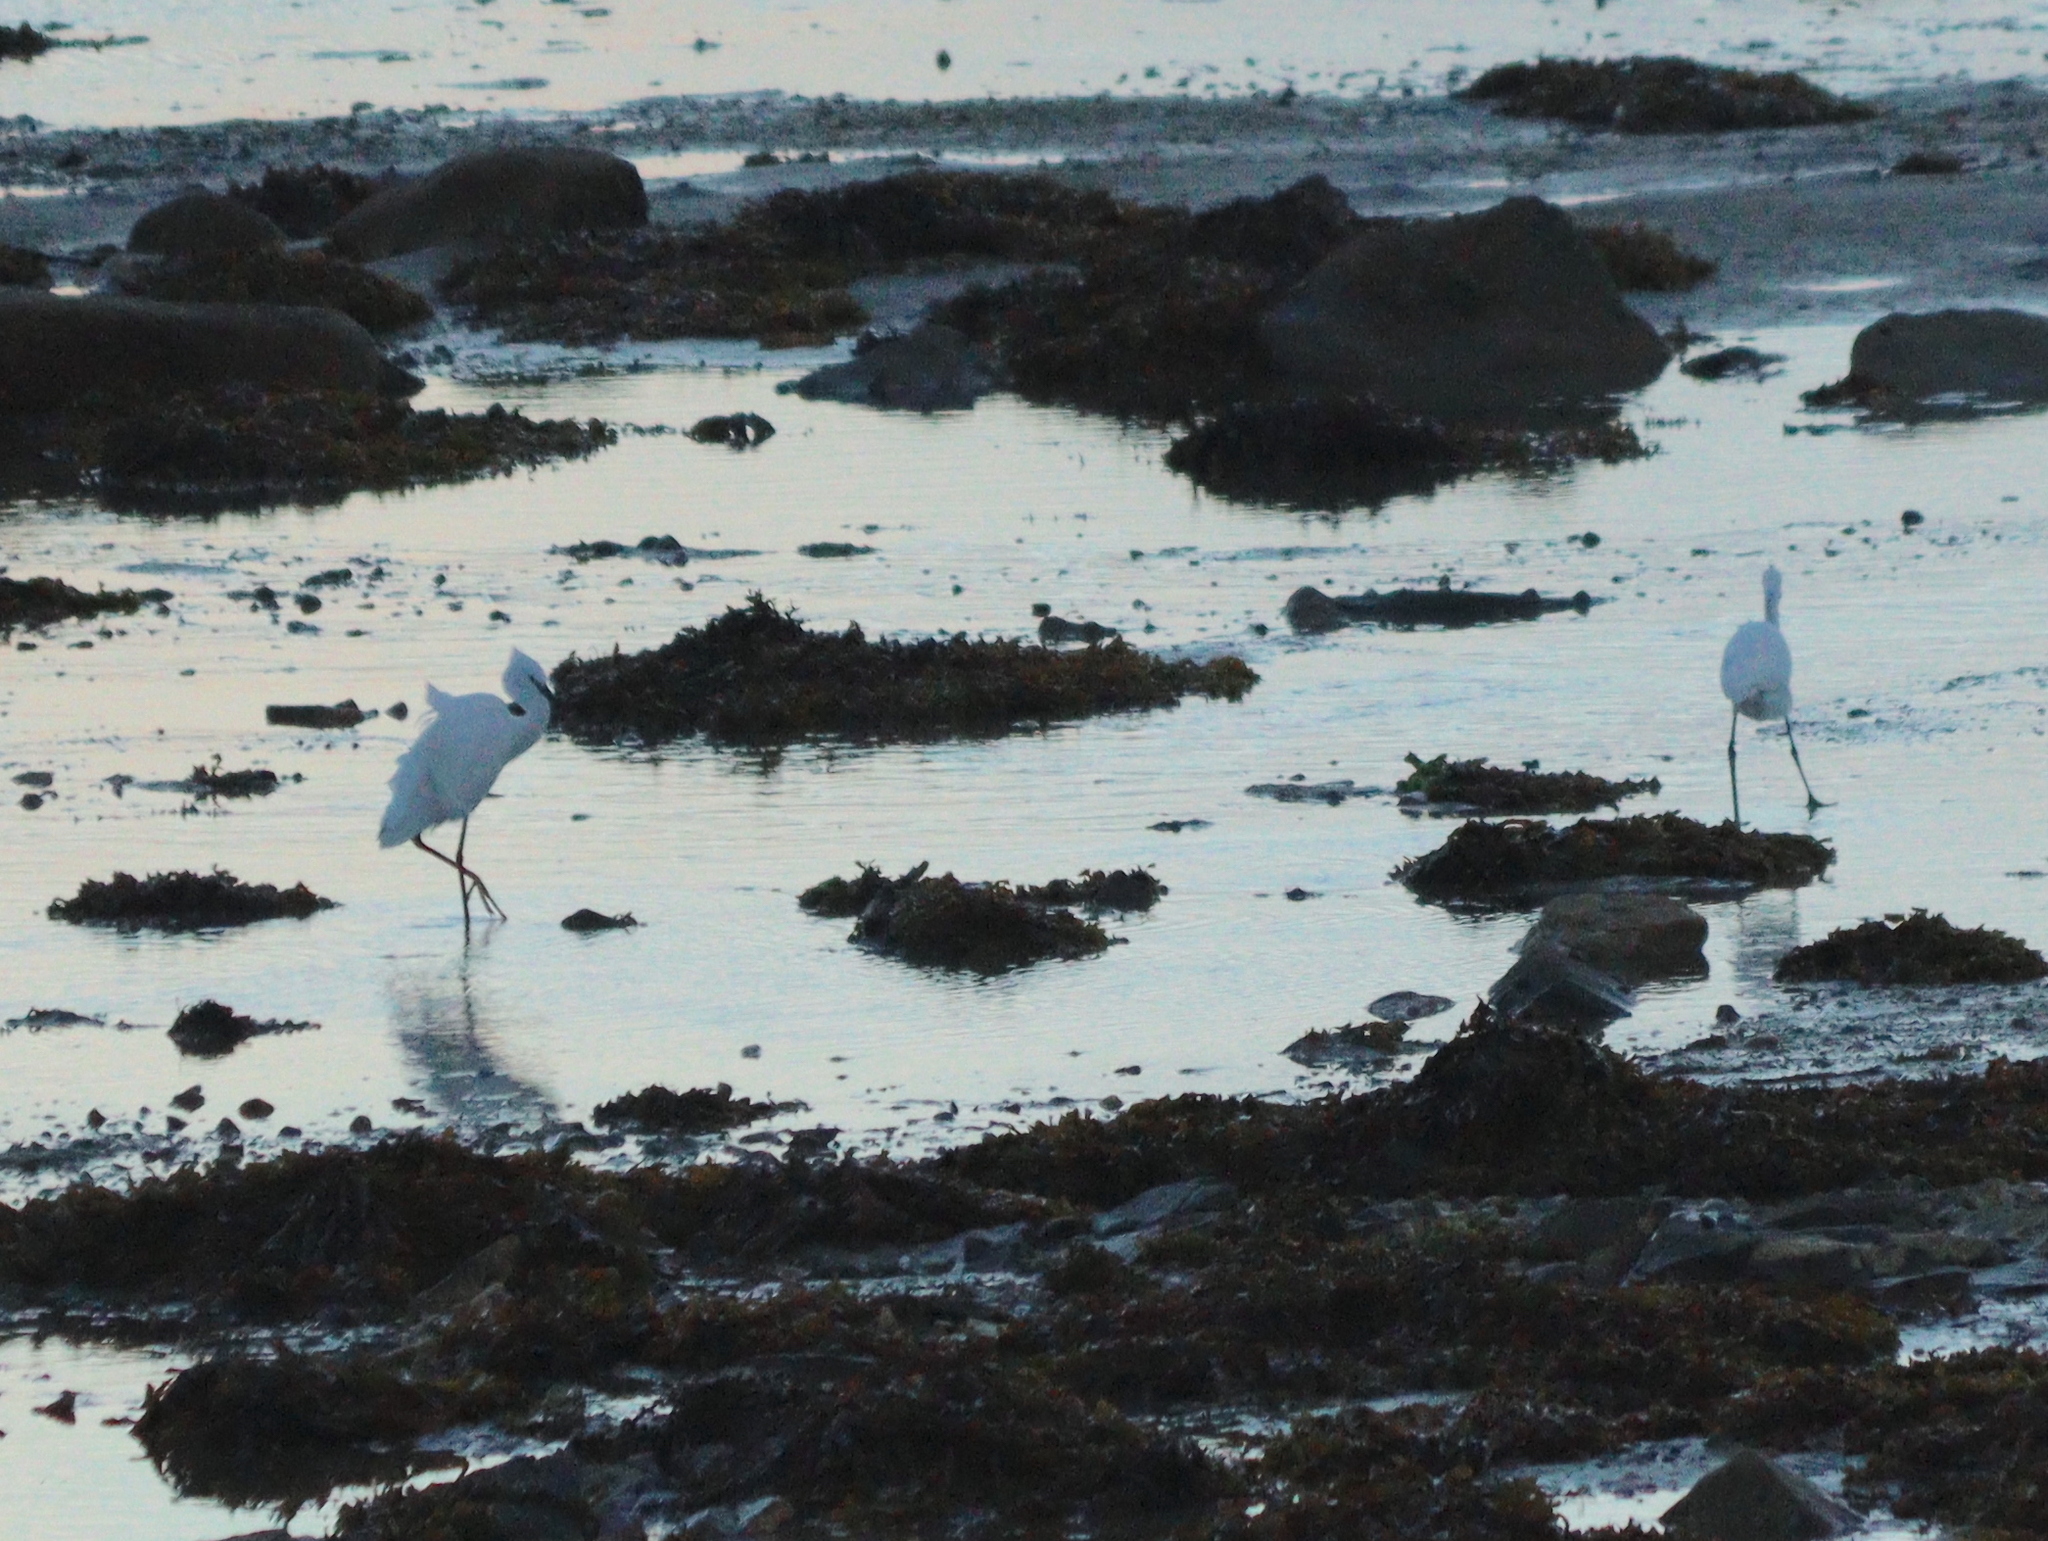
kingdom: Animalia
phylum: Chordata
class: Aves
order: Pelecaniformes
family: Ardeidae
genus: Egretta
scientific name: Egretta garzetta
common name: Little egret
